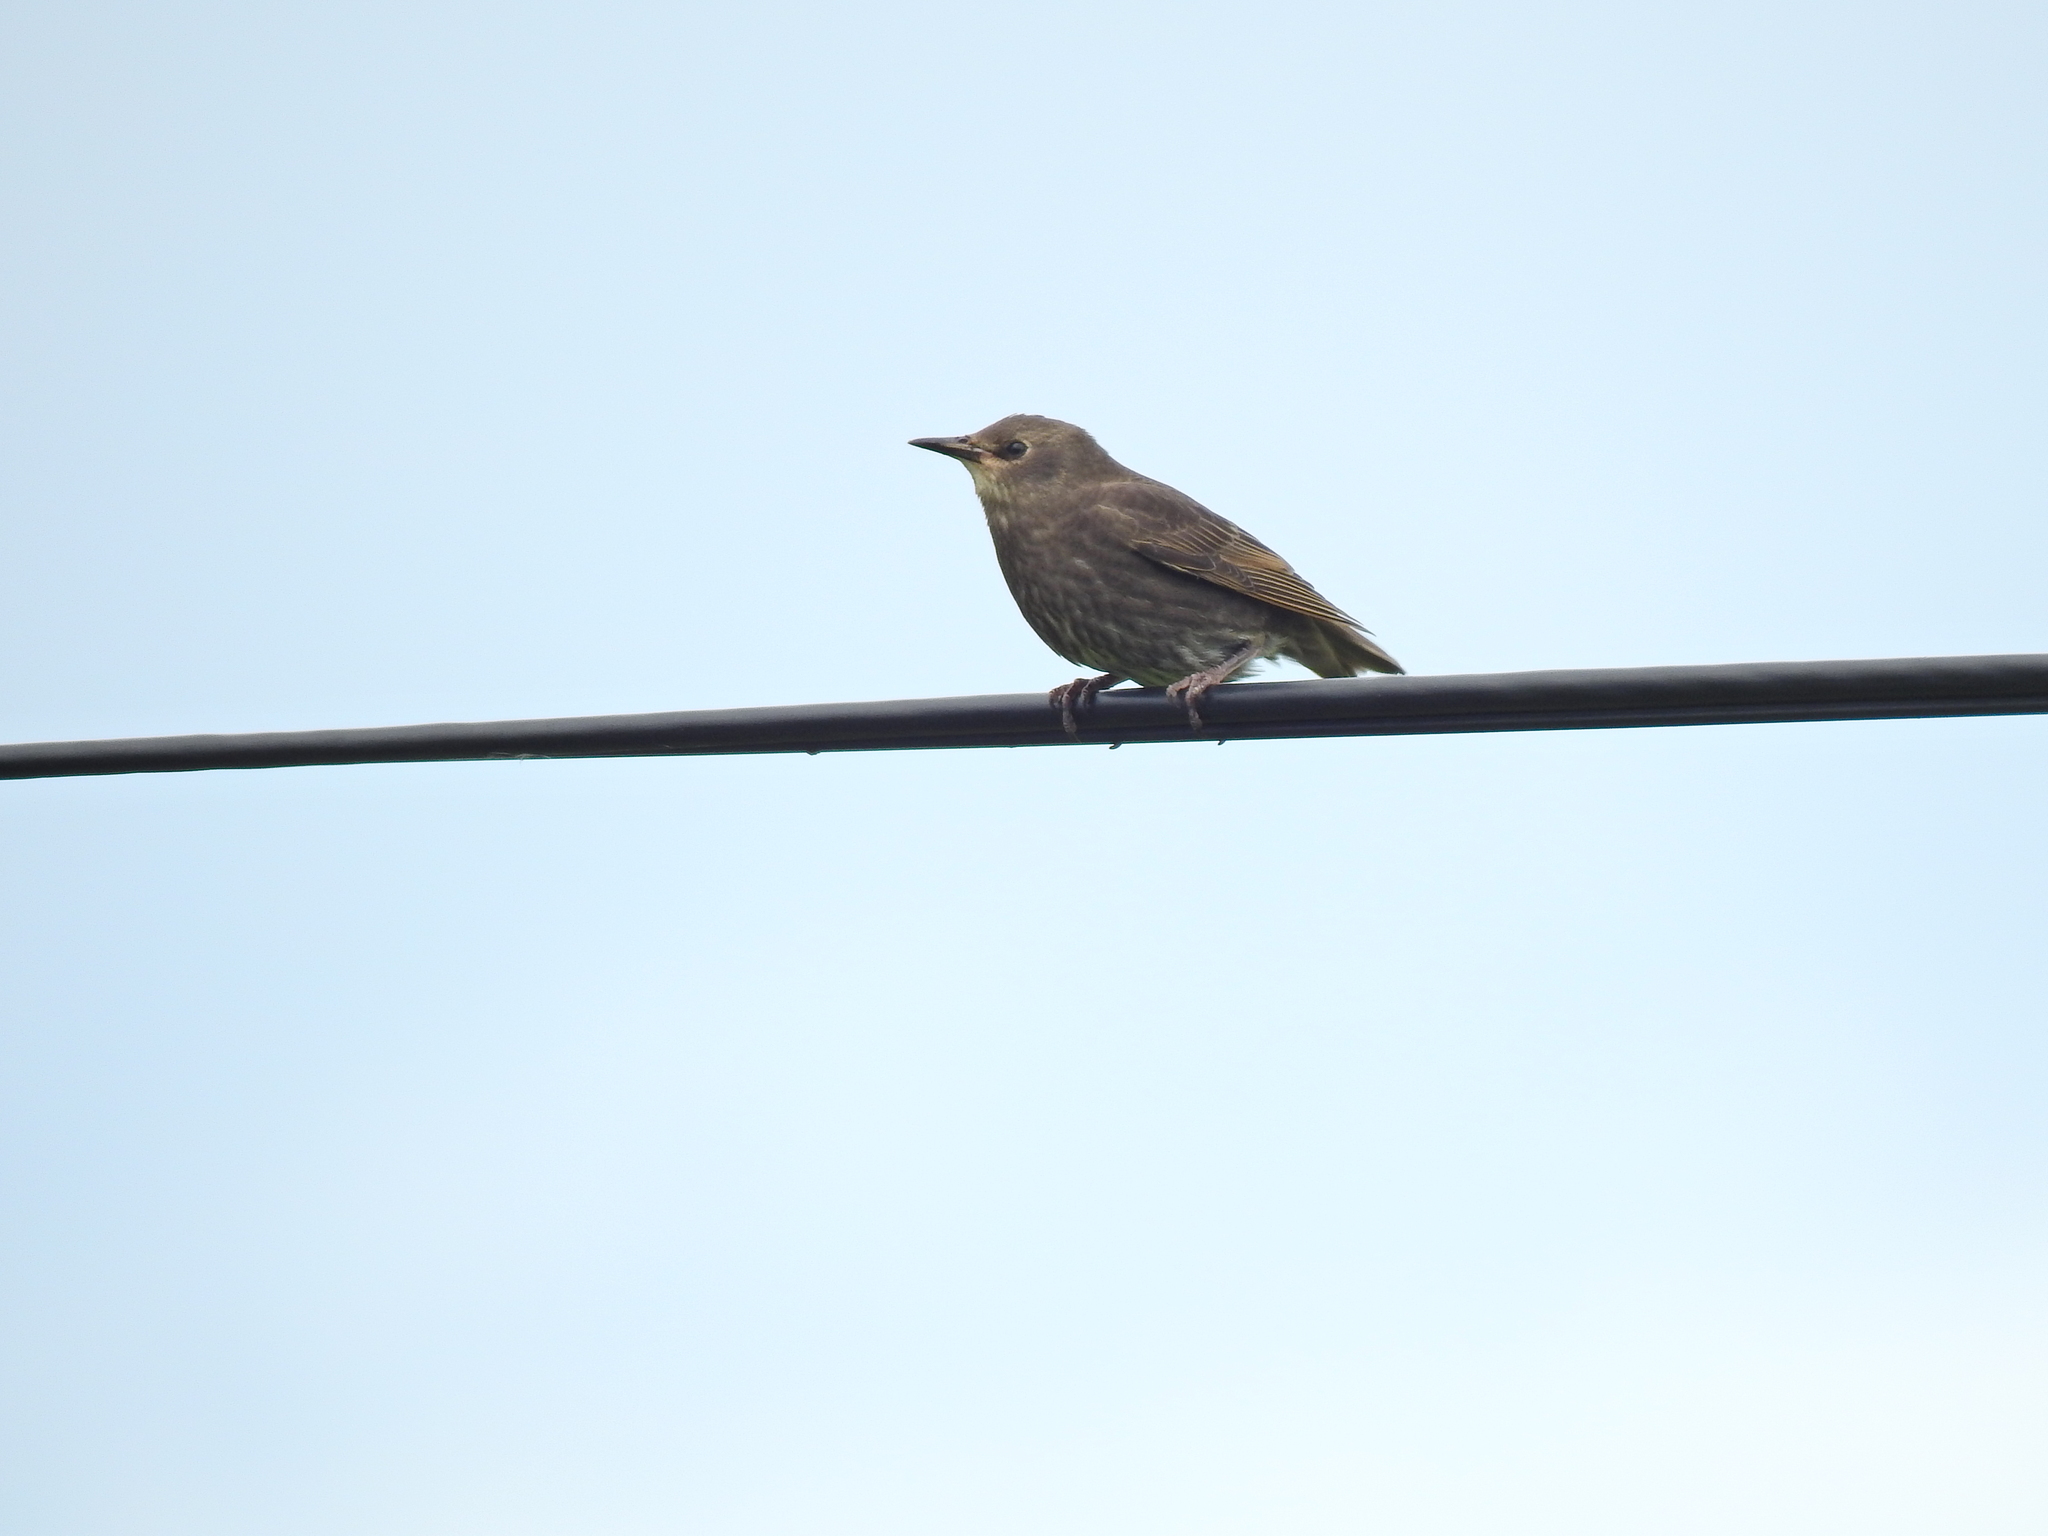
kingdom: Animalia
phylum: Chordata
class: Aves
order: Passeriformes
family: Sturnidae
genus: Sturnus
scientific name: Sturnus vulgaris
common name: Common starling
